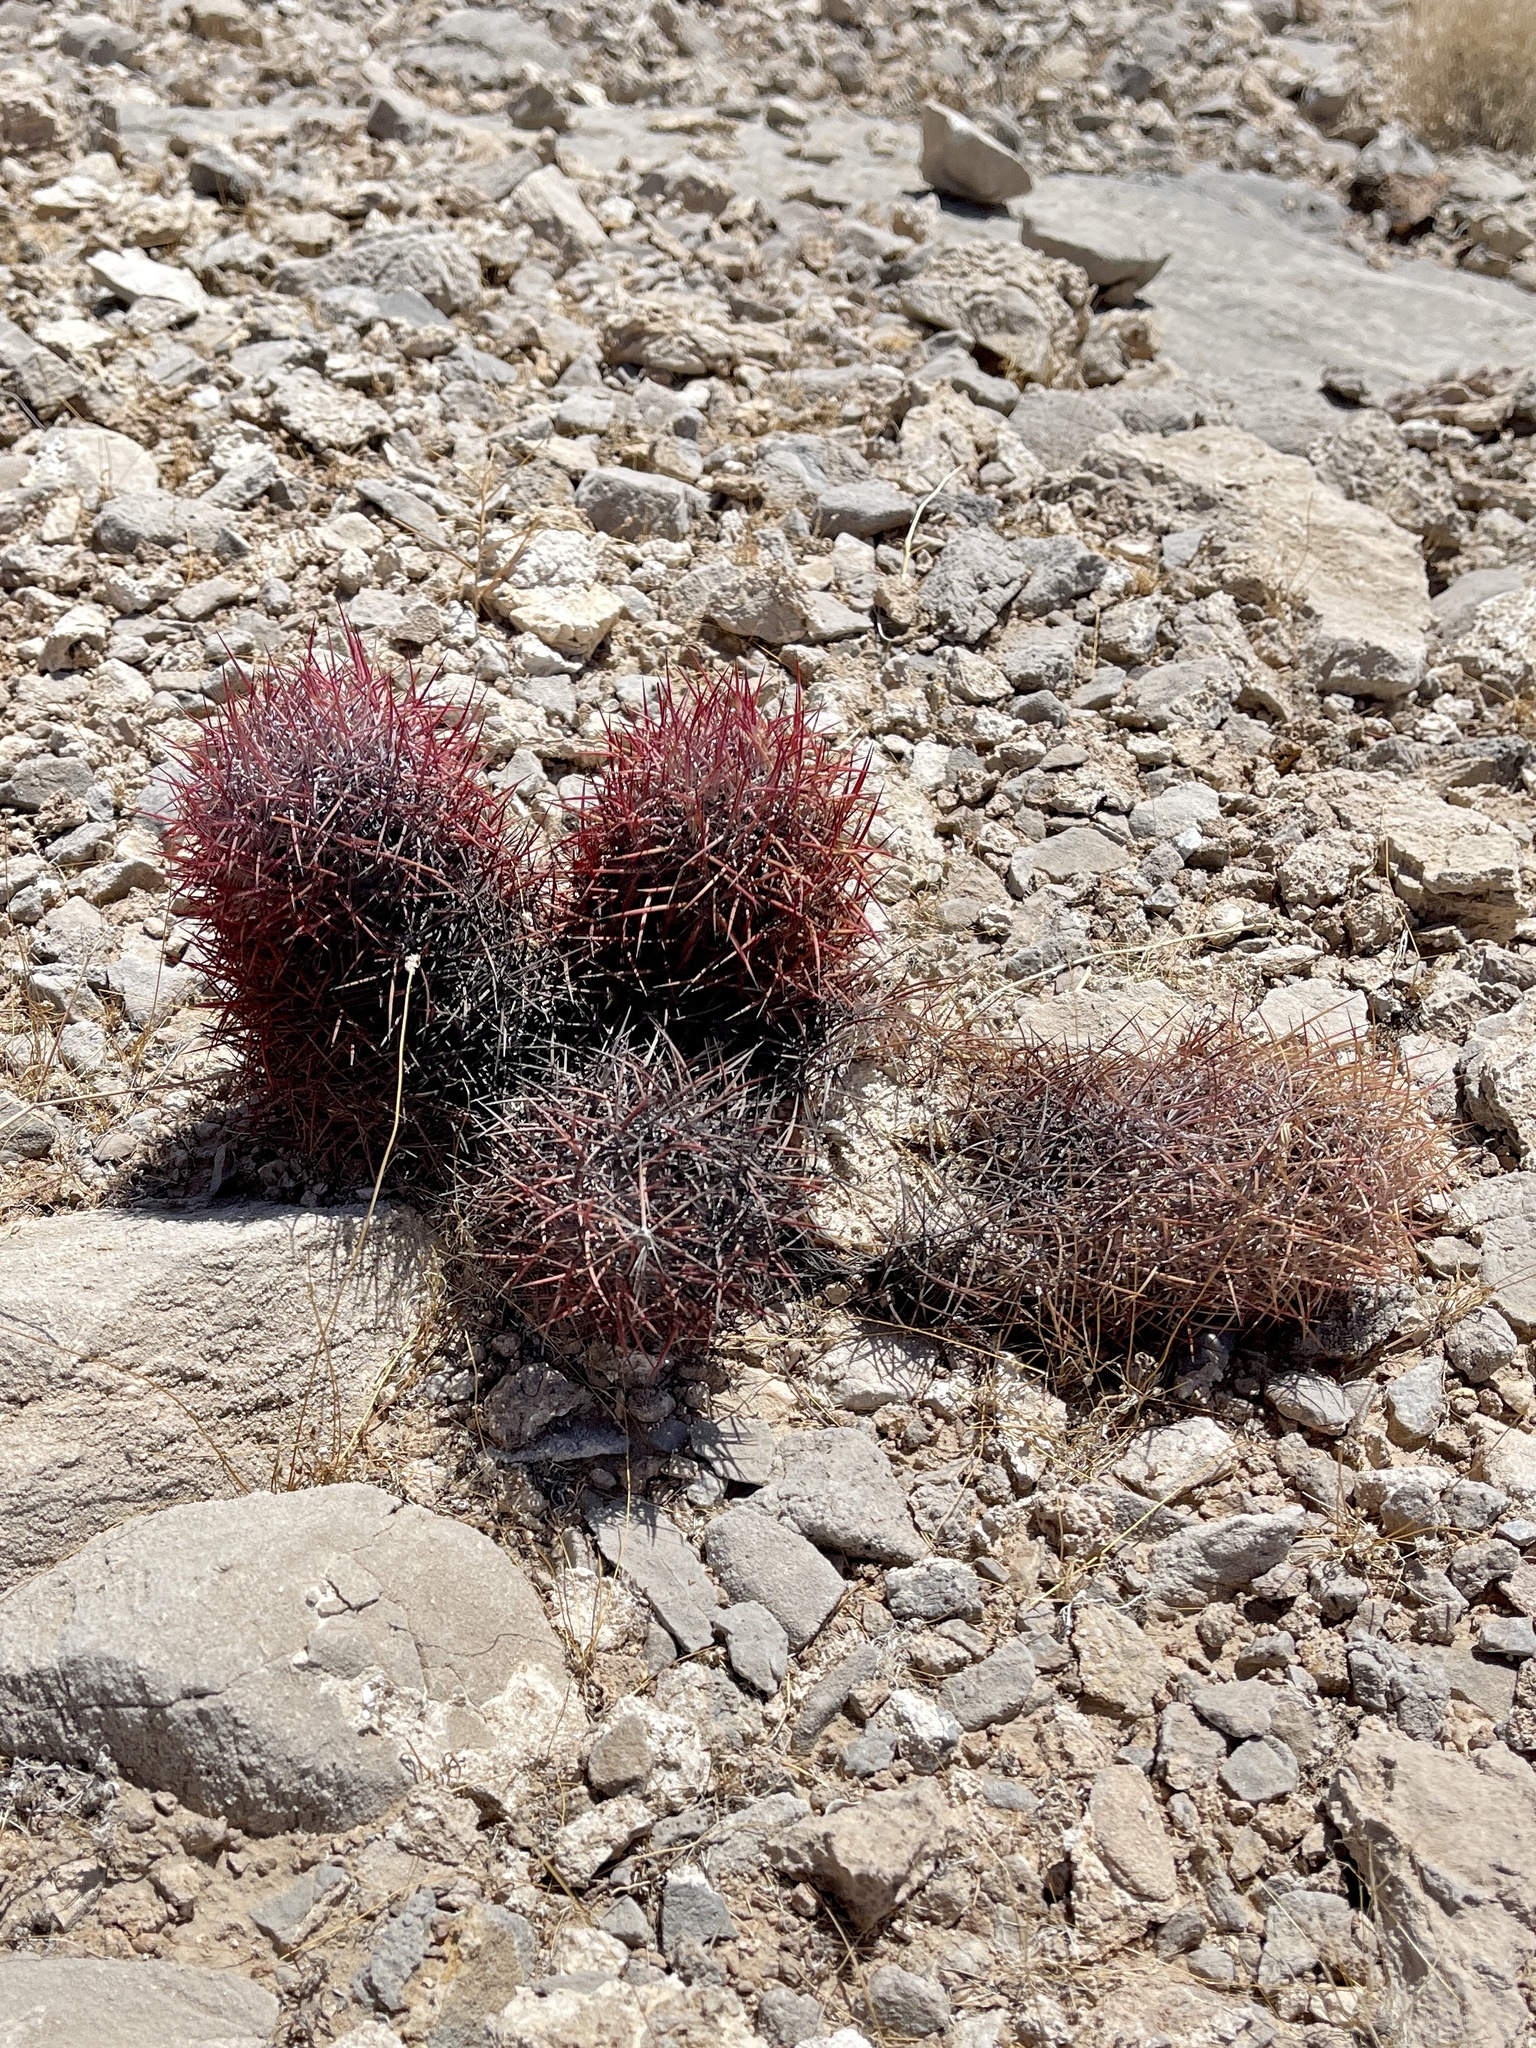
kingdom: Plantae
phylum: Tracheophyta
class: Magnoliopsida
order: Caryophyllales
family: Cactaceae
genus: Sclerocactus
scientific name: Sclerocactus johnsonii
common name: Eight-spine fishhook cactus
